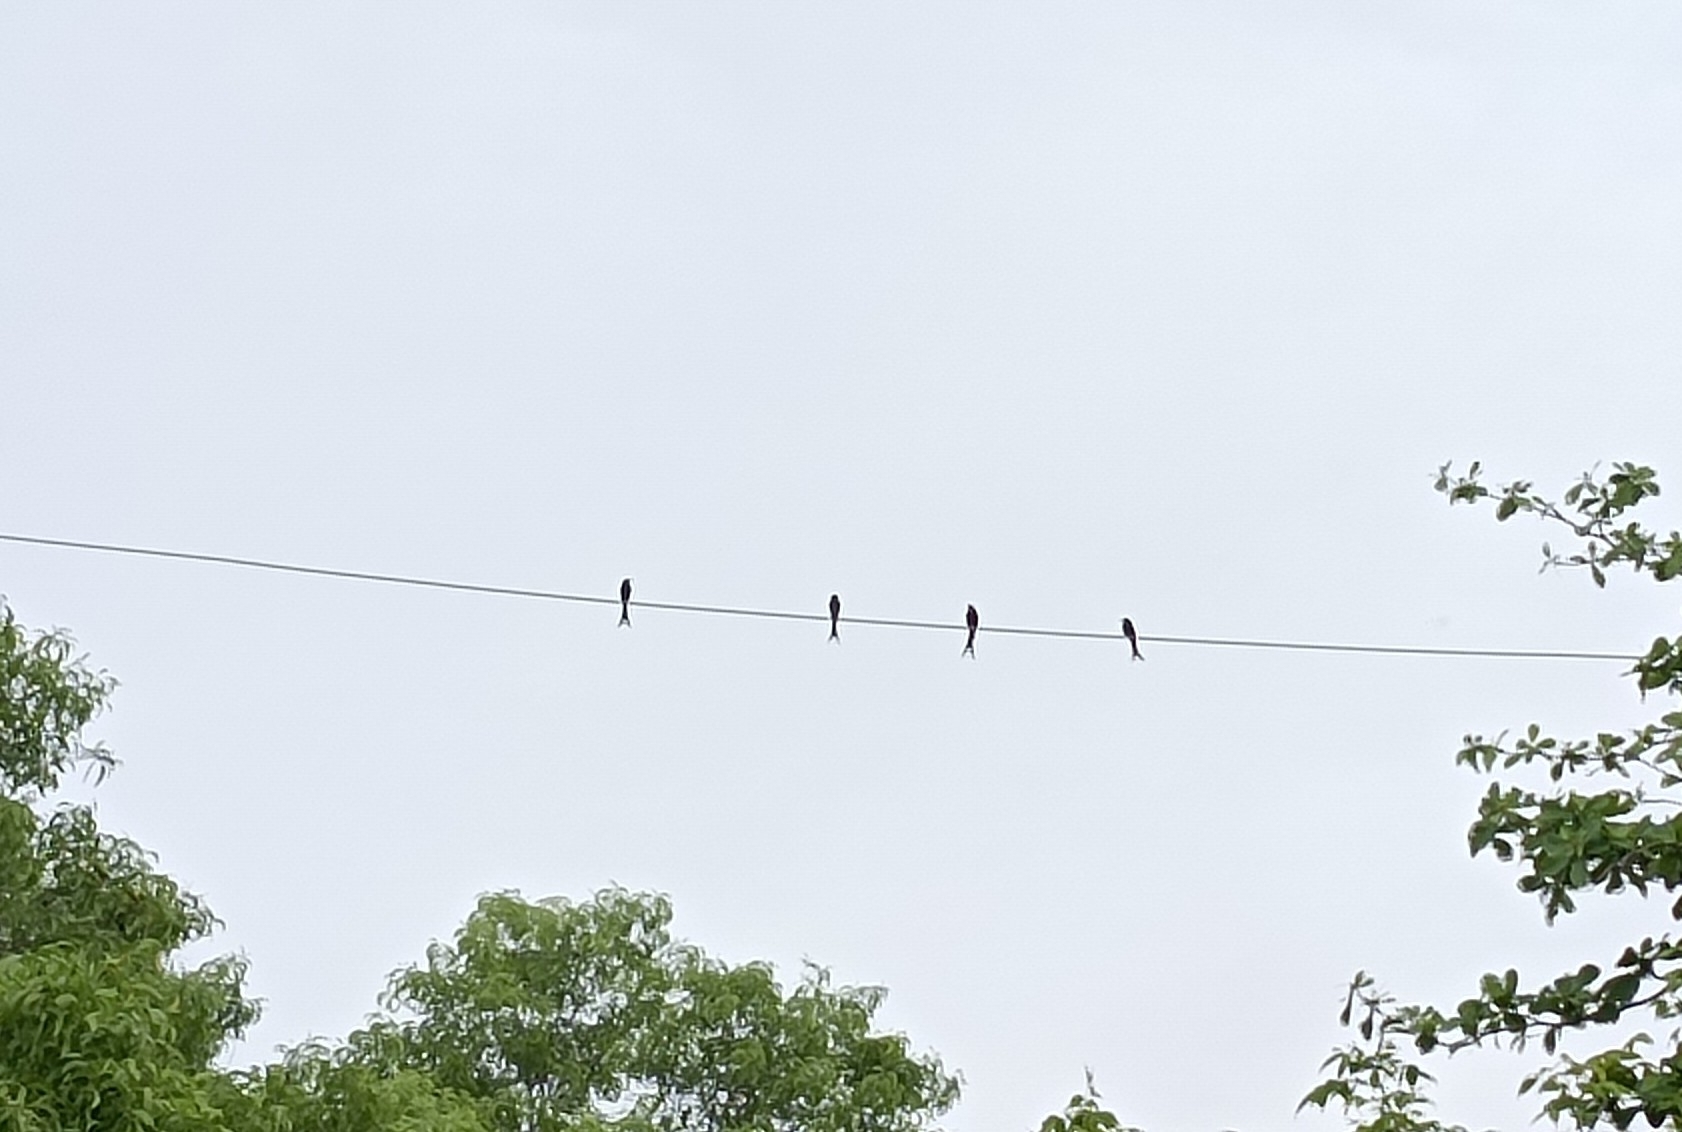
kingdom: Animalia
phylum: Chordata
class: Aves
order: Passeriformes
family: Dicruridae
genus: Dicrurus
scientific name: Dicrurus macrocercus
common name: Black drongo
